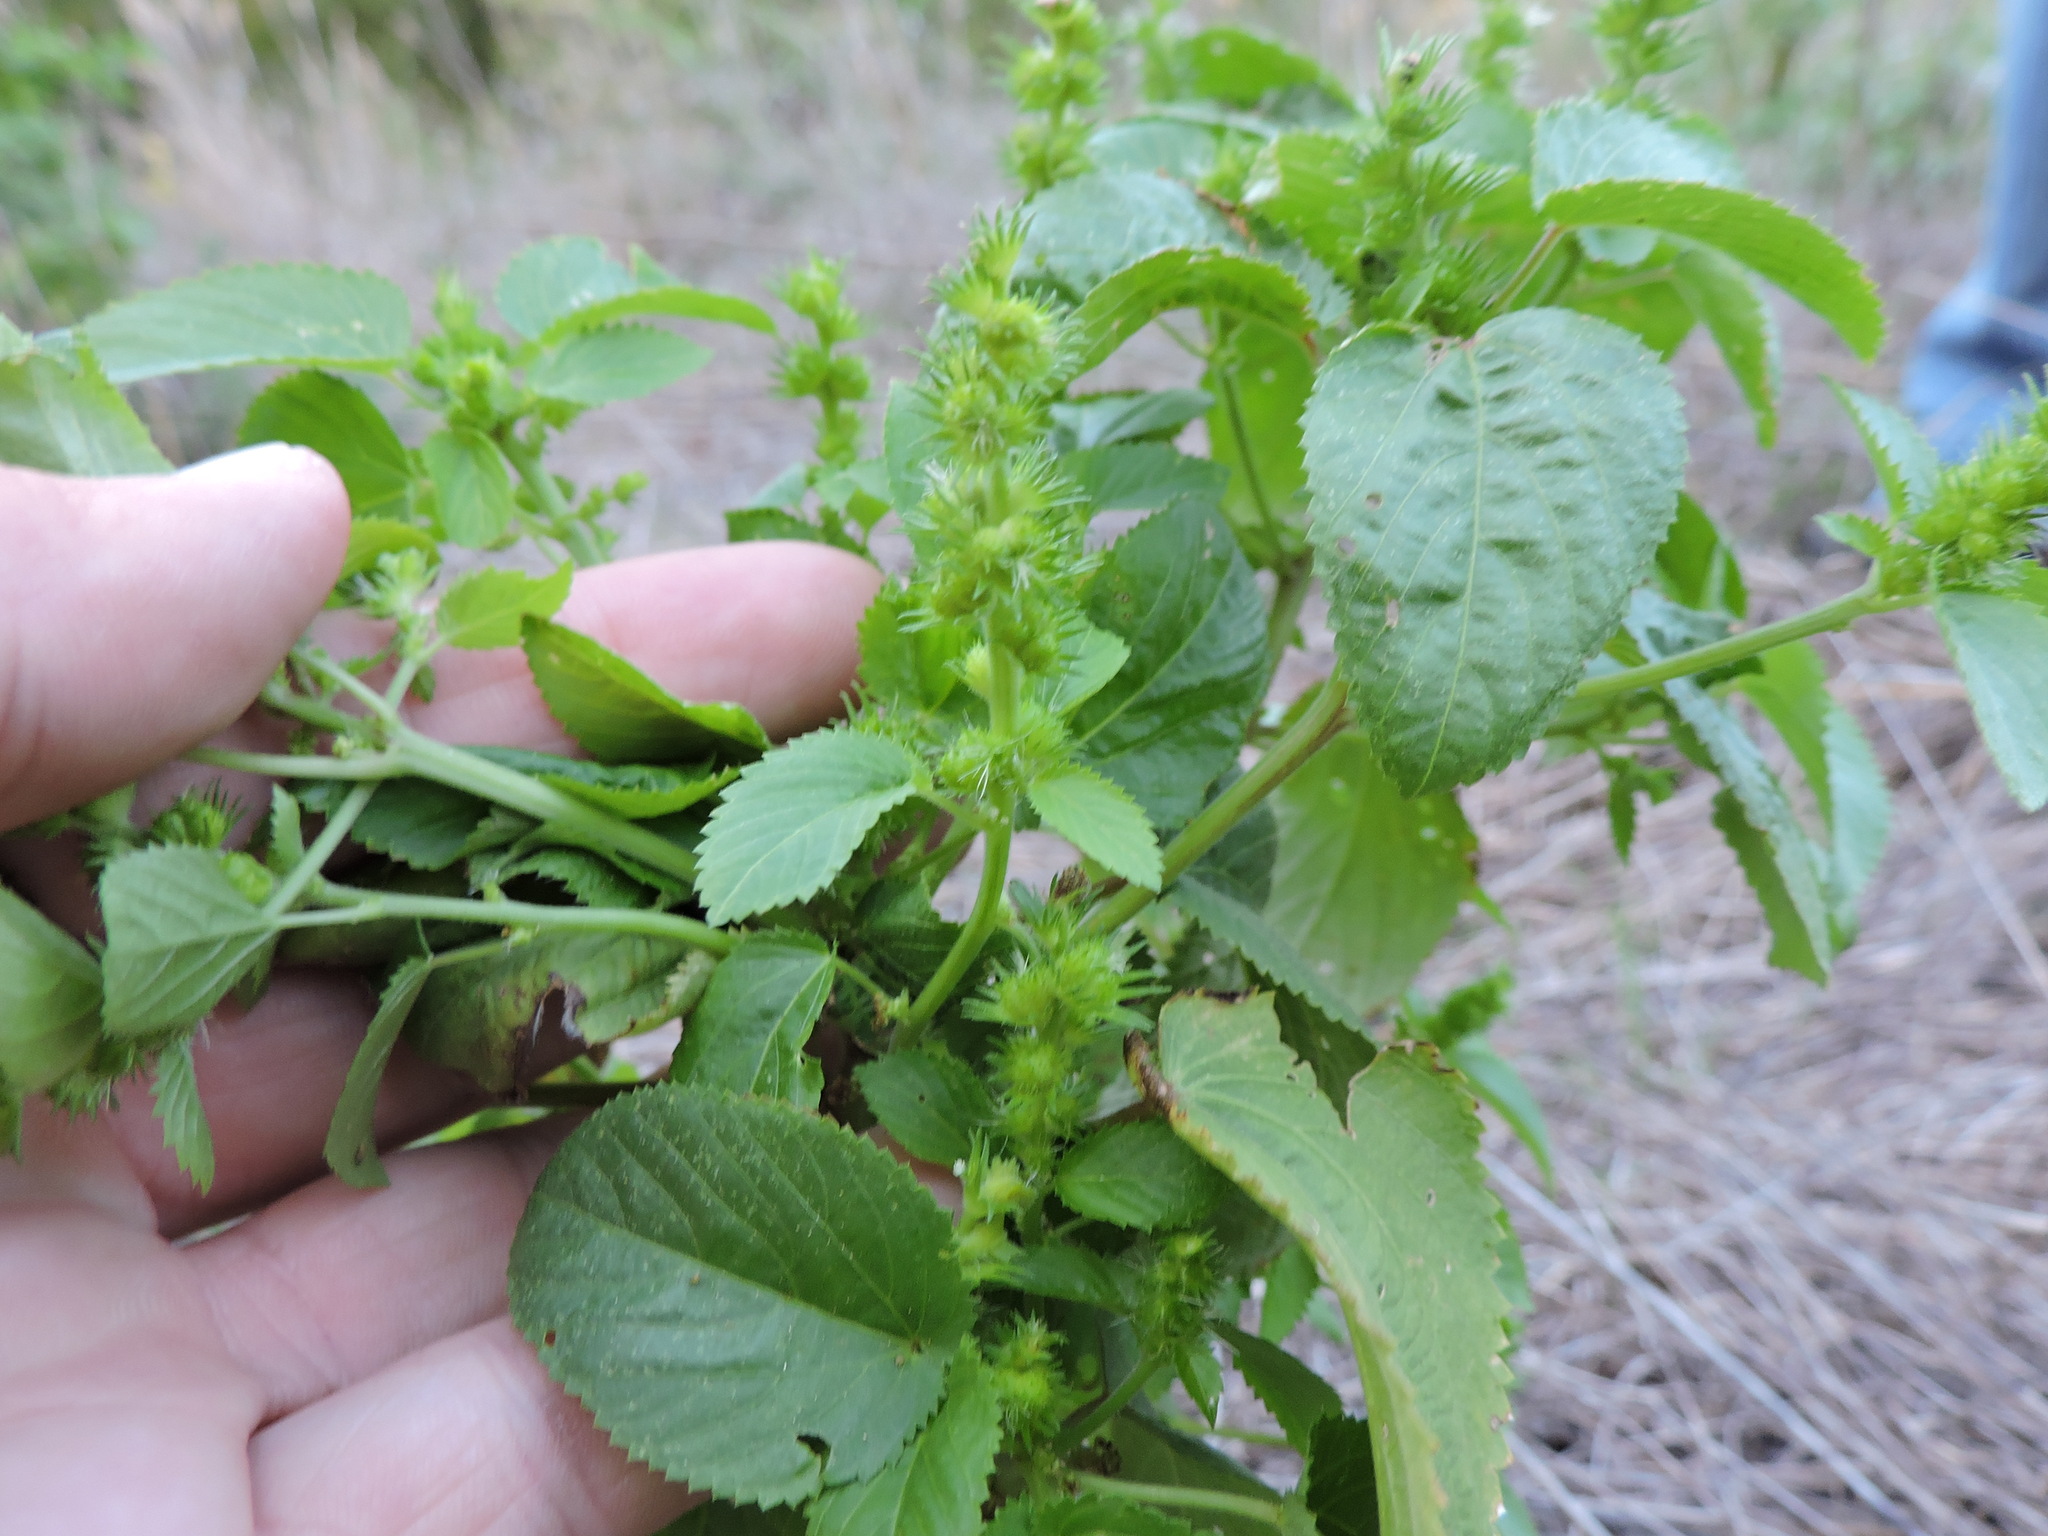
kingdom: Plantae
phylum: Tracheophyta
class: Magnoliopsida
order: Malpighiales
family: Euphorbiaceae
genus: Acalypha
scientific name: Acalypha ostryifolia
